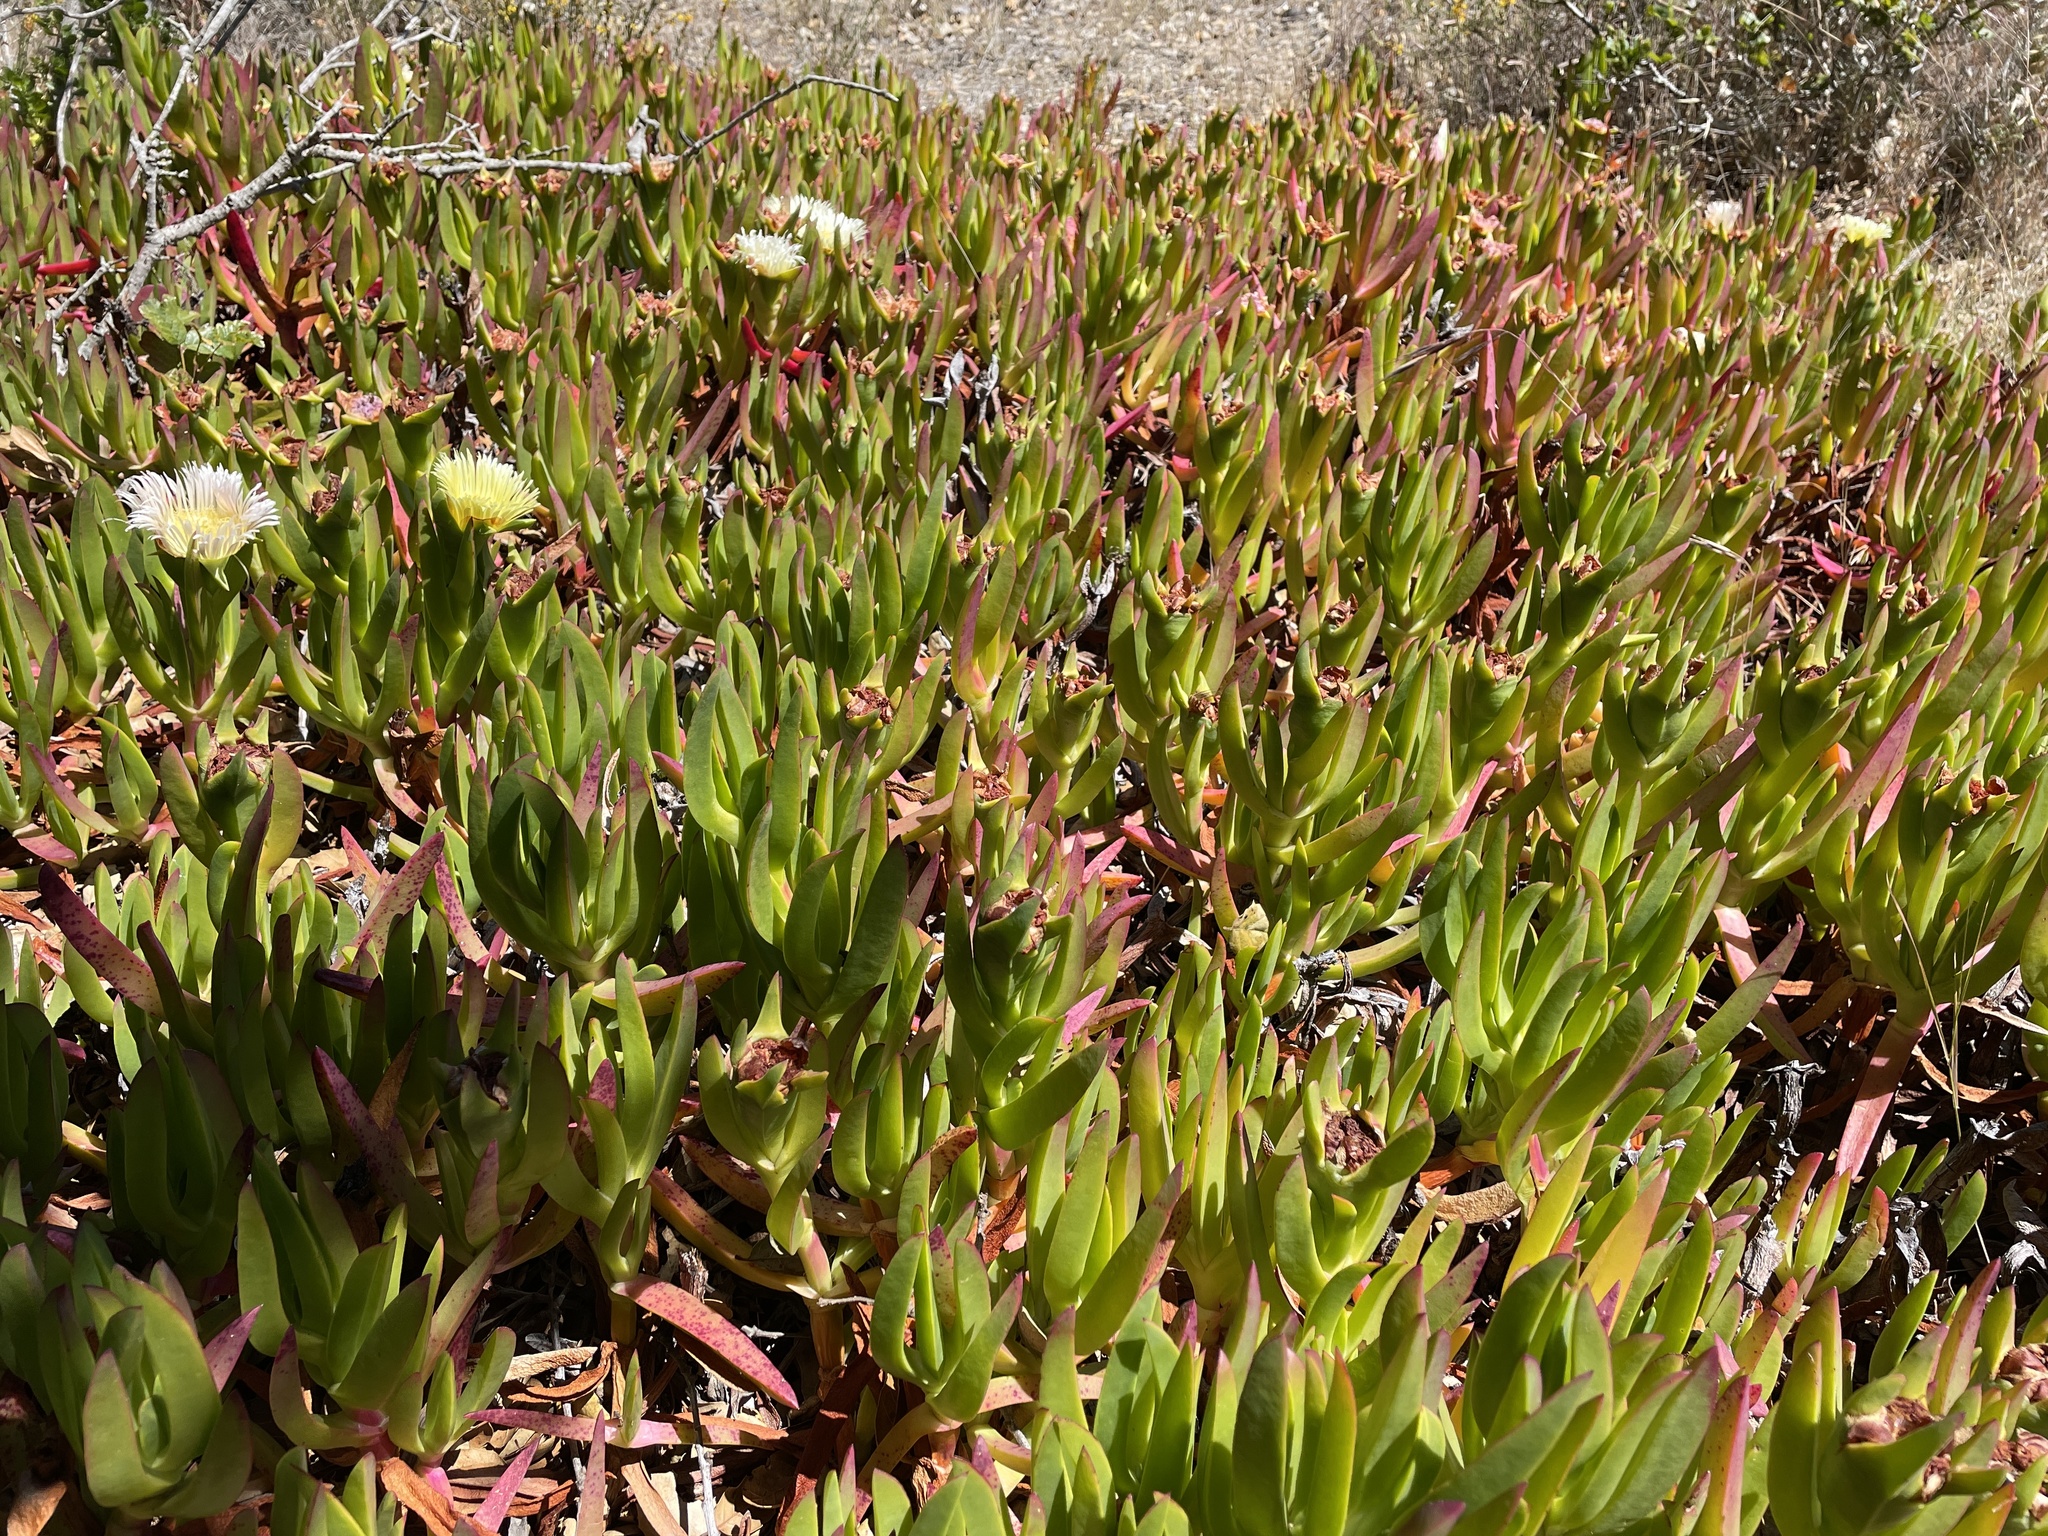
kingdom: Plantae
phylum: Tracheophyta
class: Magnoliopsida
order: Caryophyllales
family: Aizoaceae
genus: Carpobrotus
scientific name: Carpobrotus edulis
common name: Hottentot-fig
